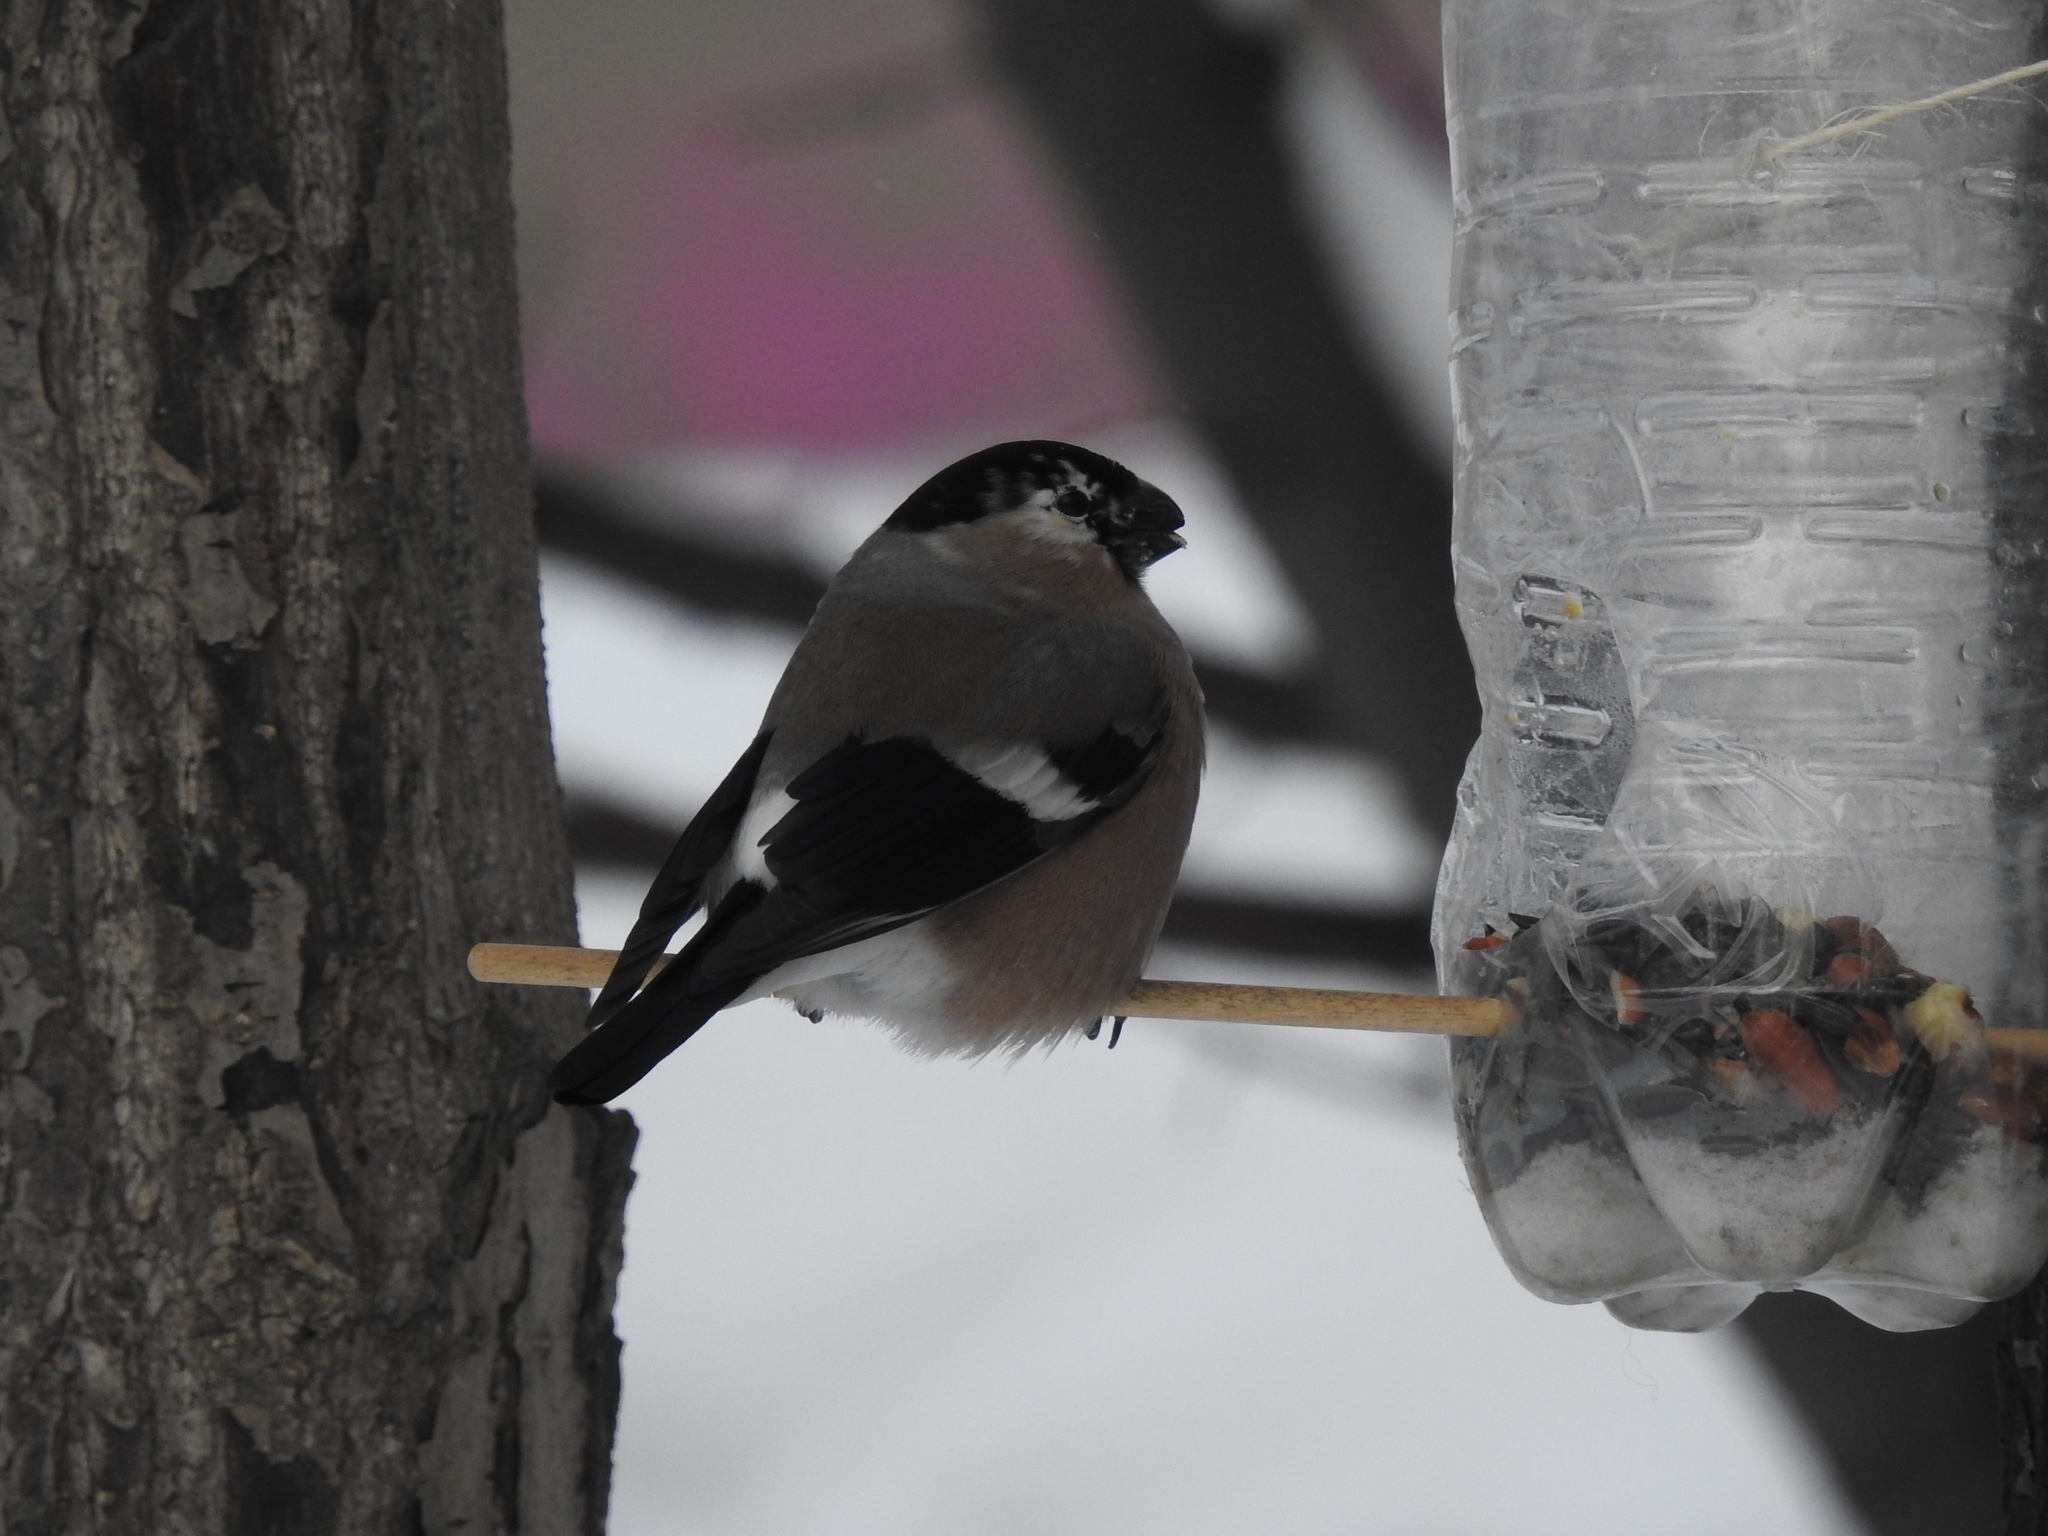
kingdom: Animalia
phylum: Chordata
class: Aves
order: Passeriformes
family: Fringillidae
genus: Pyrrhula
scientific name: Pyrrhula pyrrhula
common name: Eurasian bullfinch
